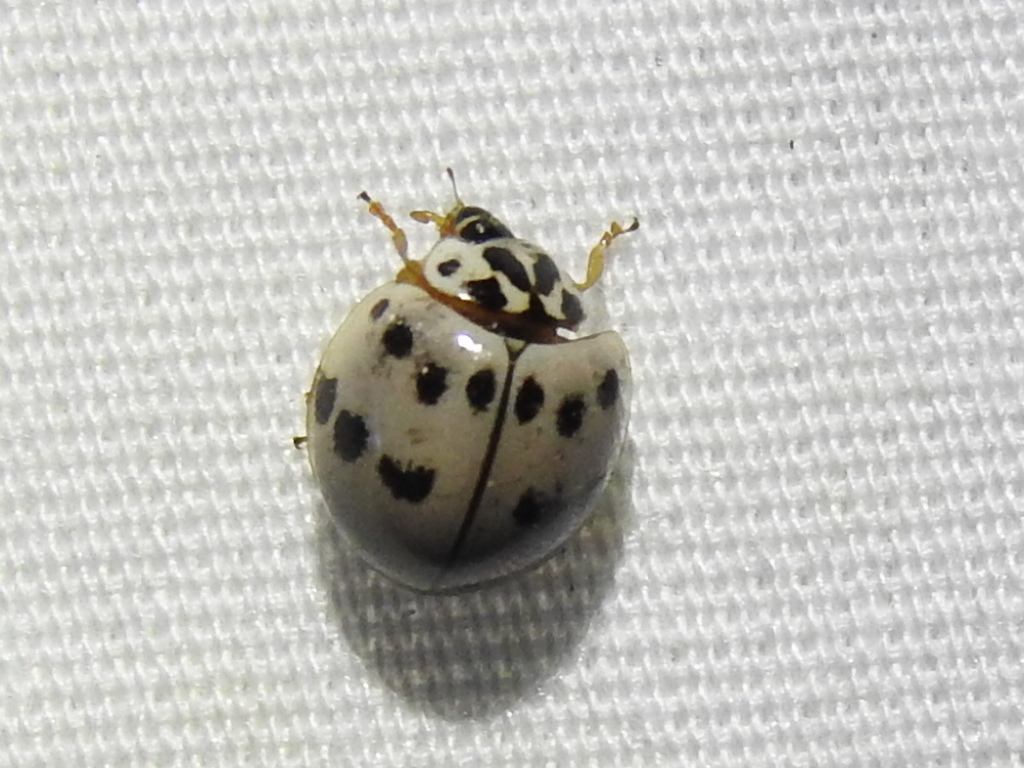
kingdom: Animalia
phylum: Arthropoda
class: Insecta
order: Coleoptera
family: Coccinellidae
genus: Olla
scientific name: Olla v-nigrum
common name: Ashy gray lady beetle
